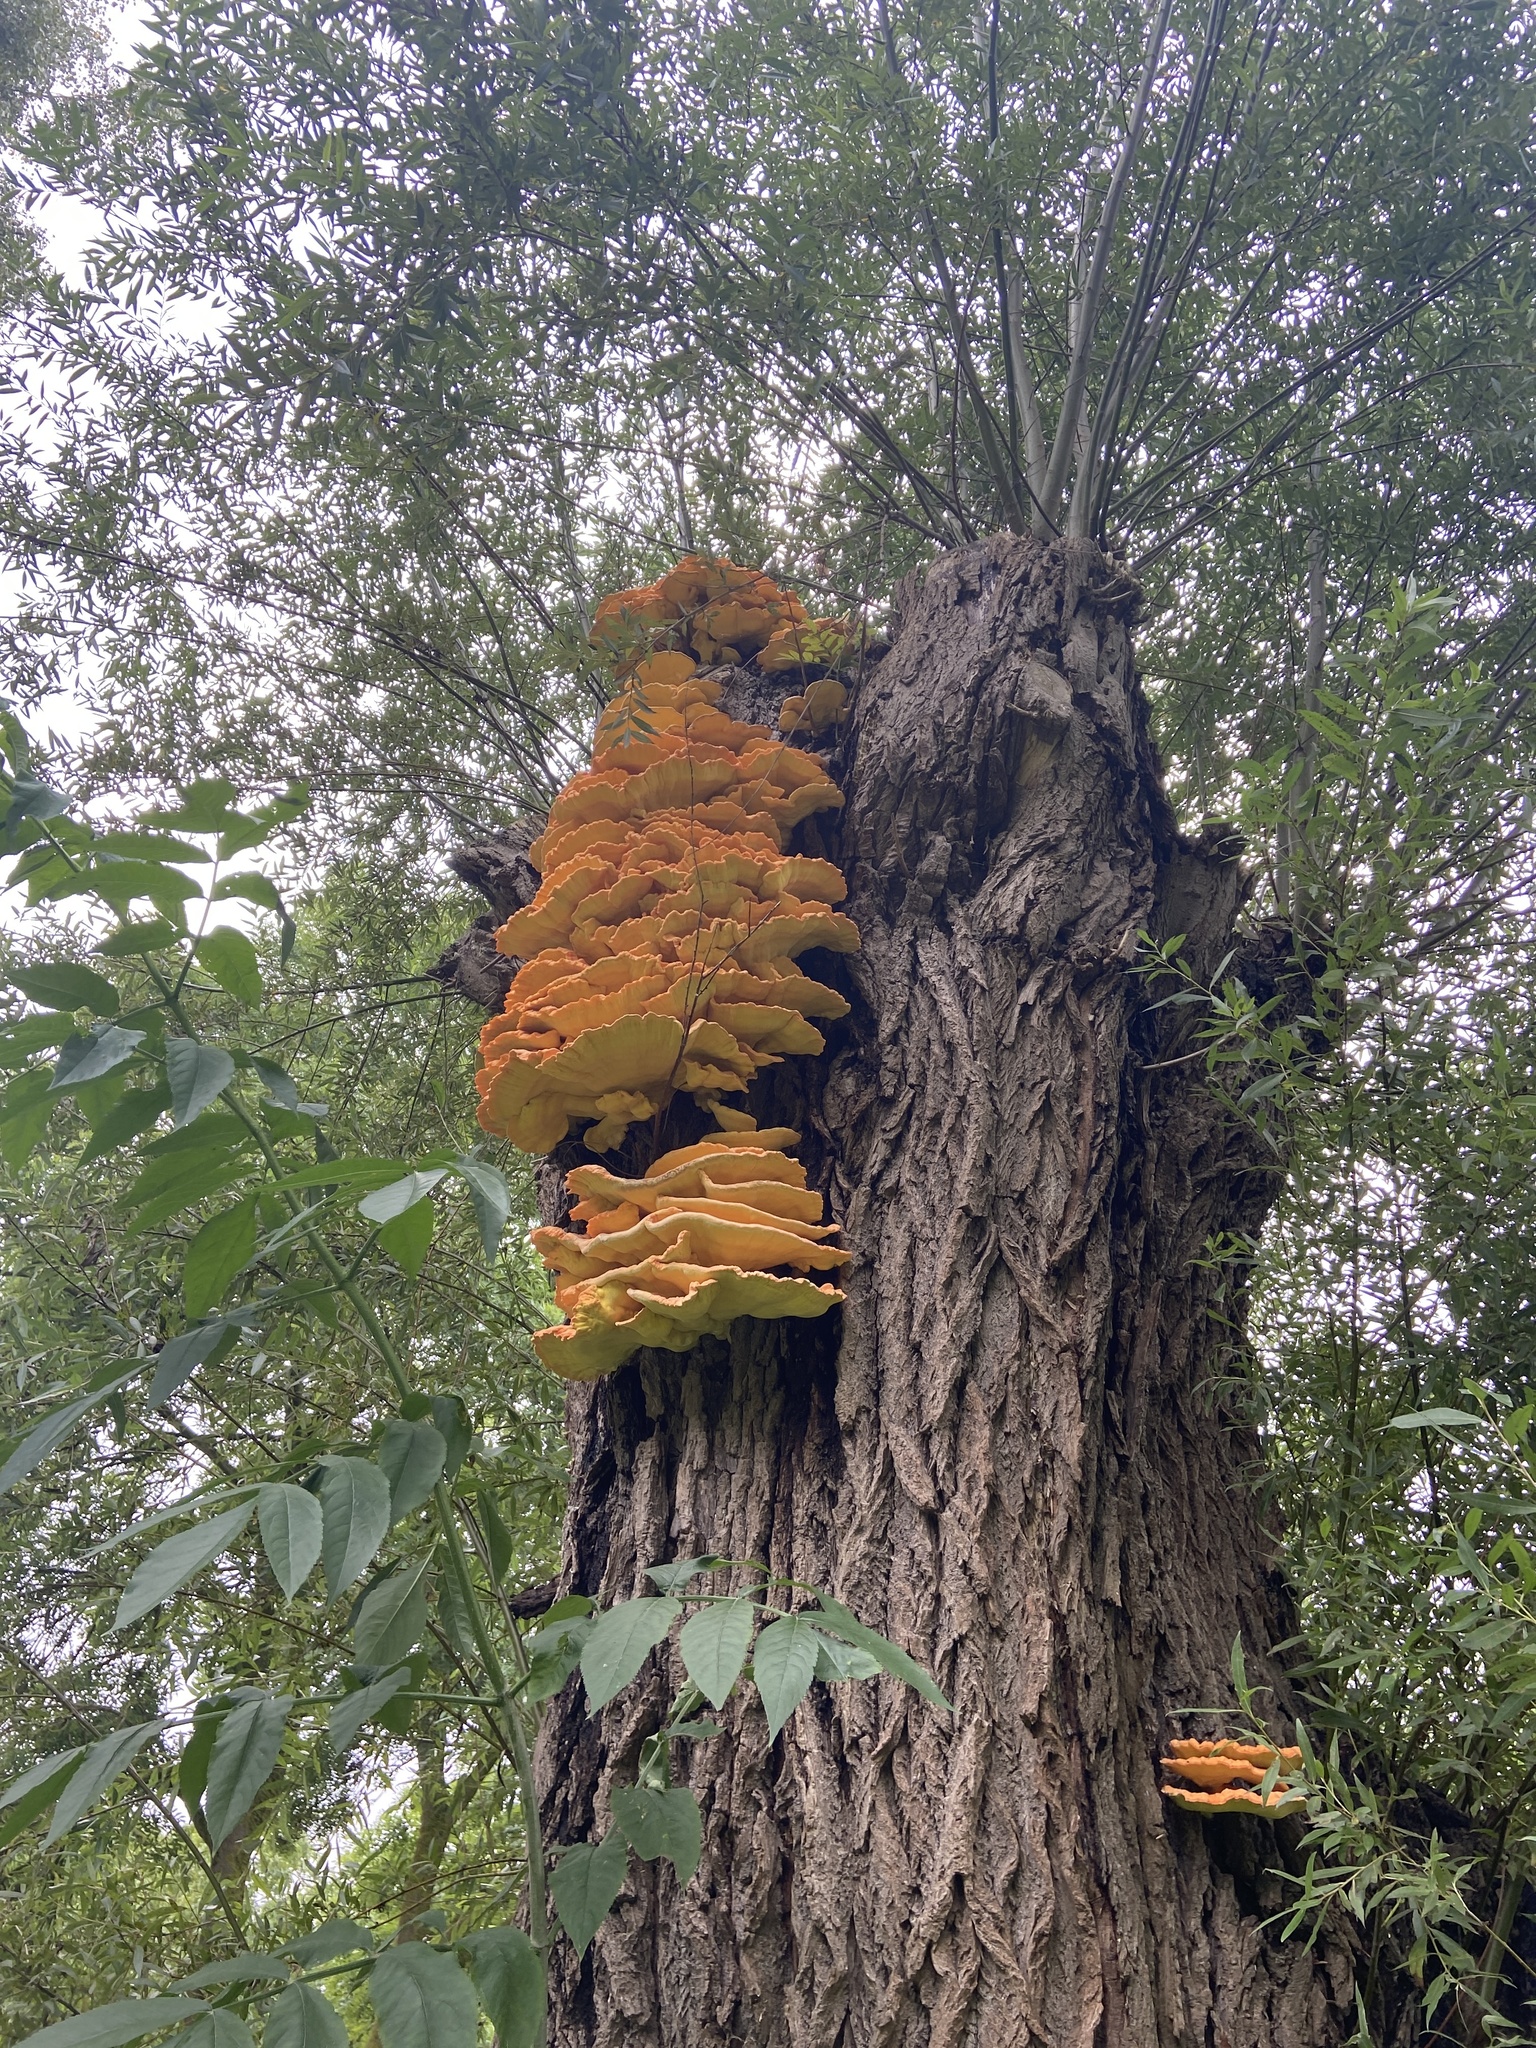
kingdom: Fungi
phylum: Basidiomycota
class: Agaricomycetes
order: Polyporales
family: Laetiporaceae
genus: Laetiporus
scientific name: Laetiporus sulphureus
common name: Chicken of the woods
